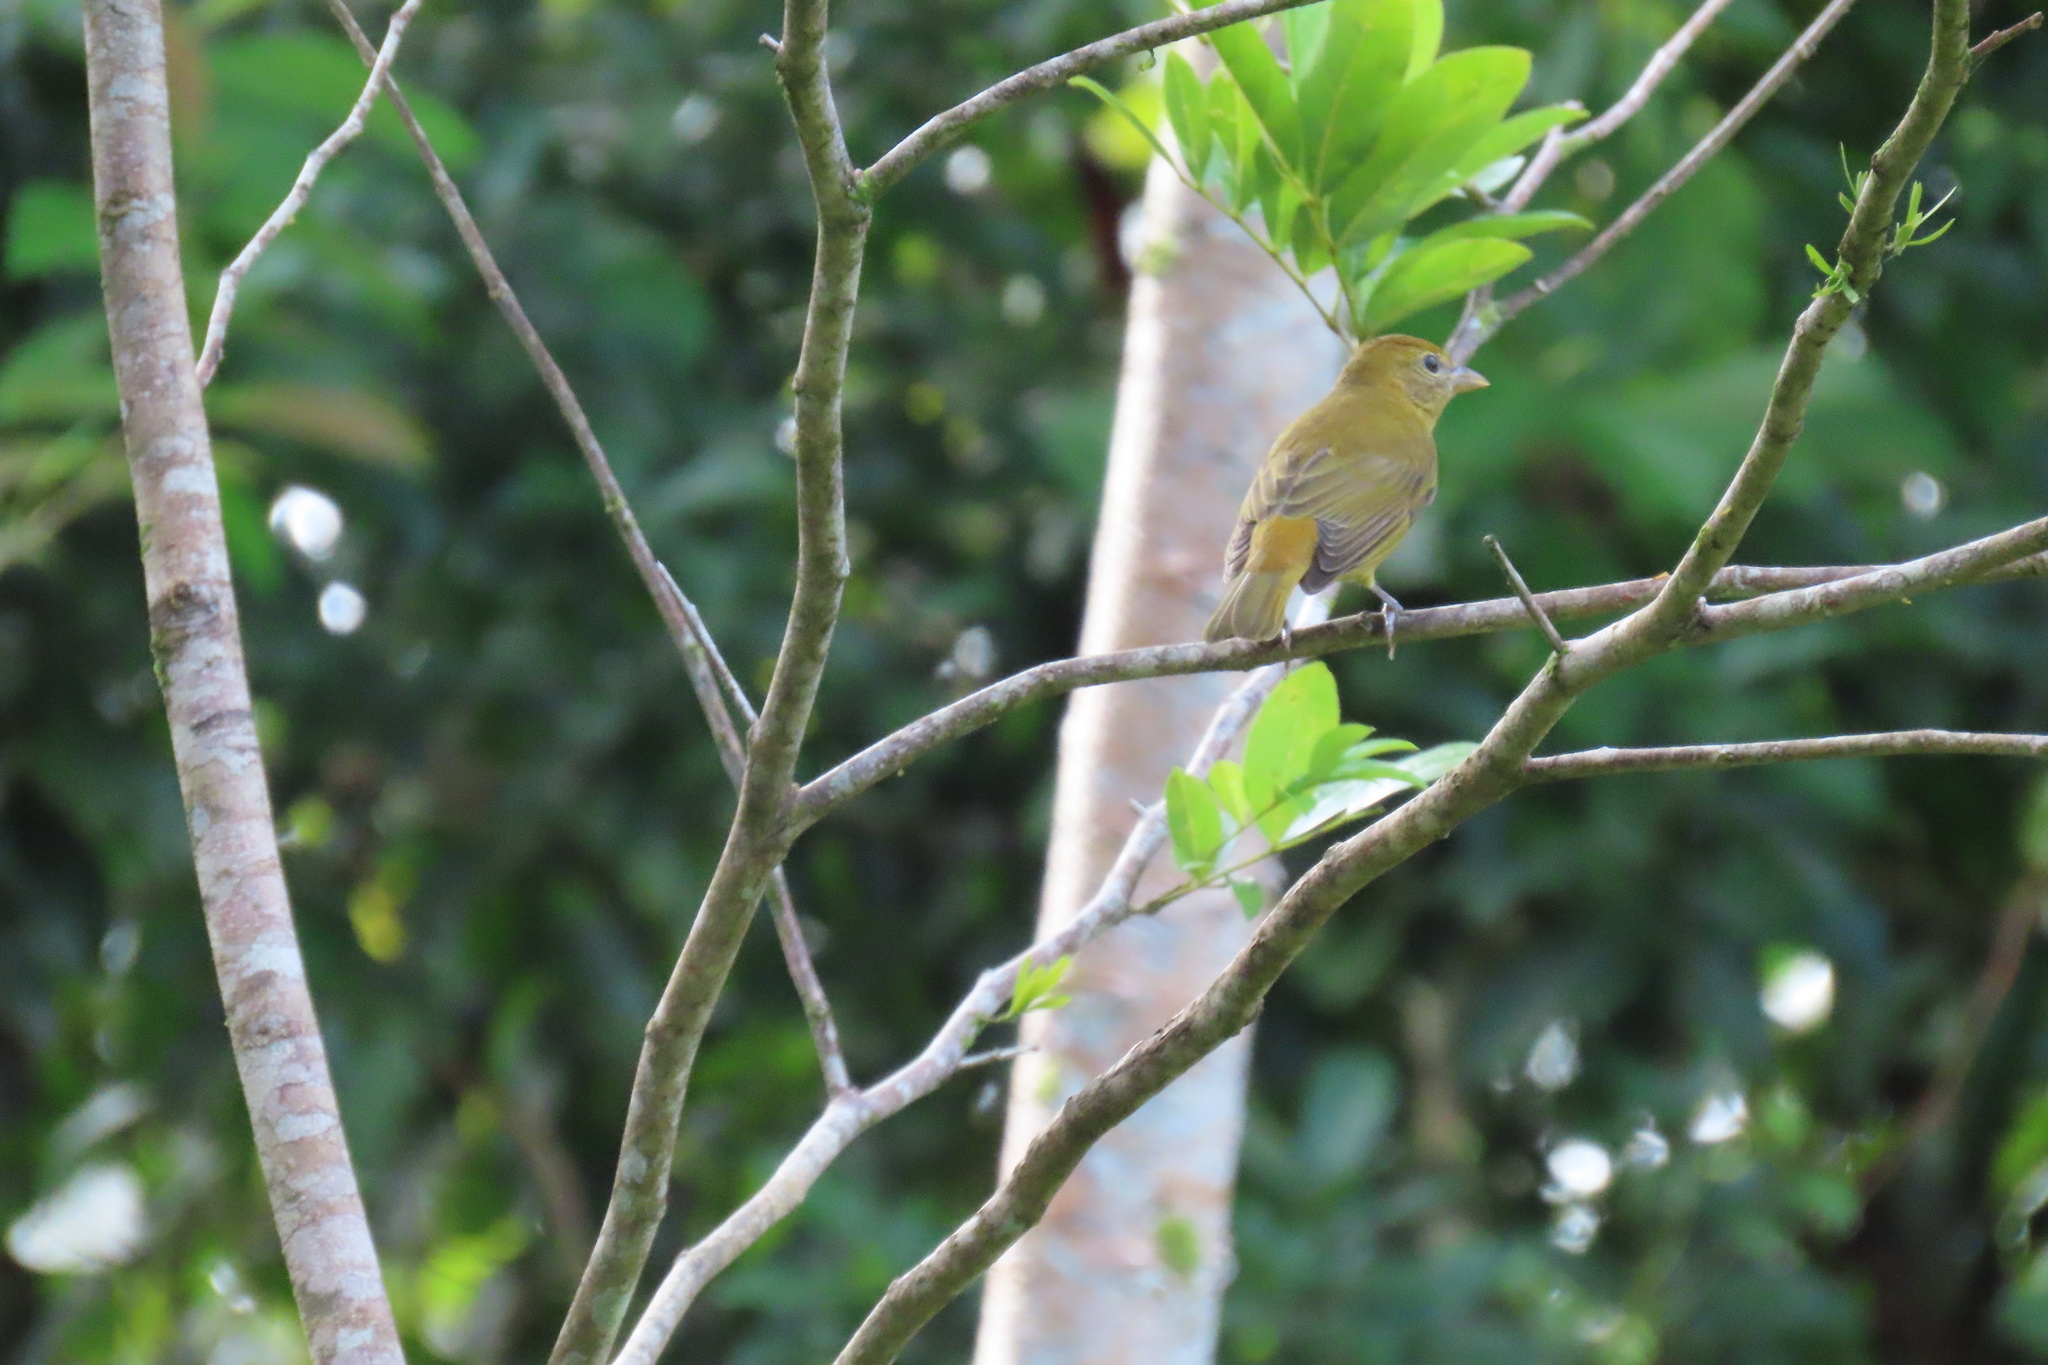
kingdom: Animalia
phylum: Chordata
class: Aves
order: Passeriformes
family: Cardinalidae
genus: Piranga
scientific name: Piranga rubra
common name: Summer tanager
